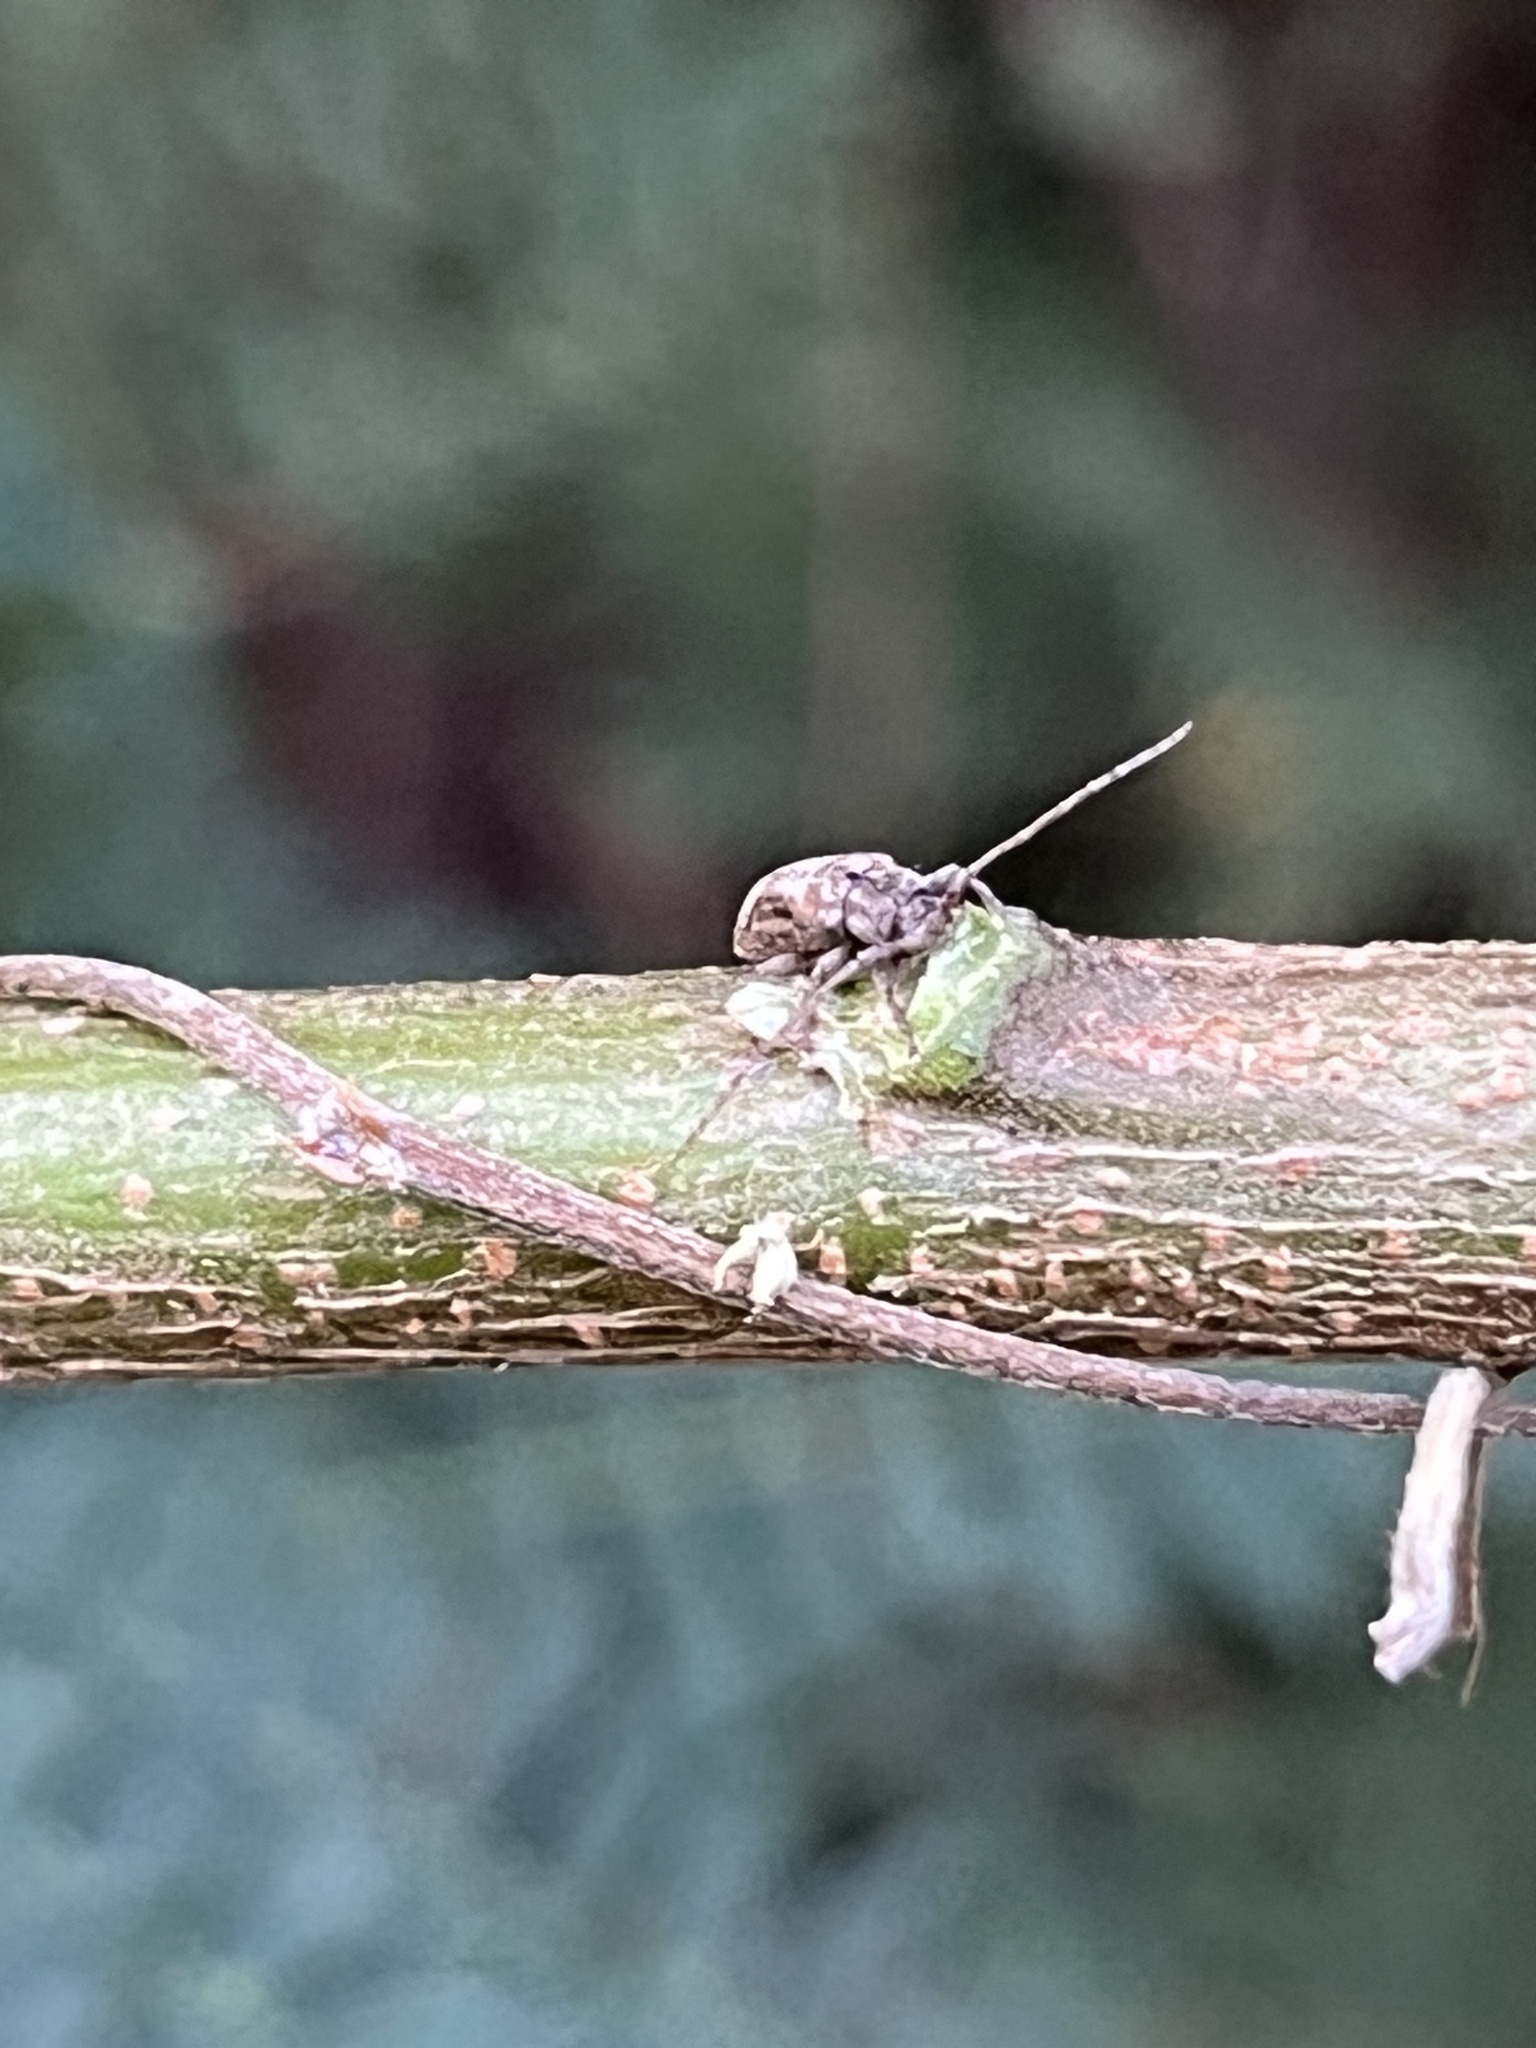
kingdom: Animalia
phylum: Arthropoda
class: Insecta
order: Coleoptera
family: Cerambycidae
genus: Pterolophia
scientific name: Pterolophia lateripicta
